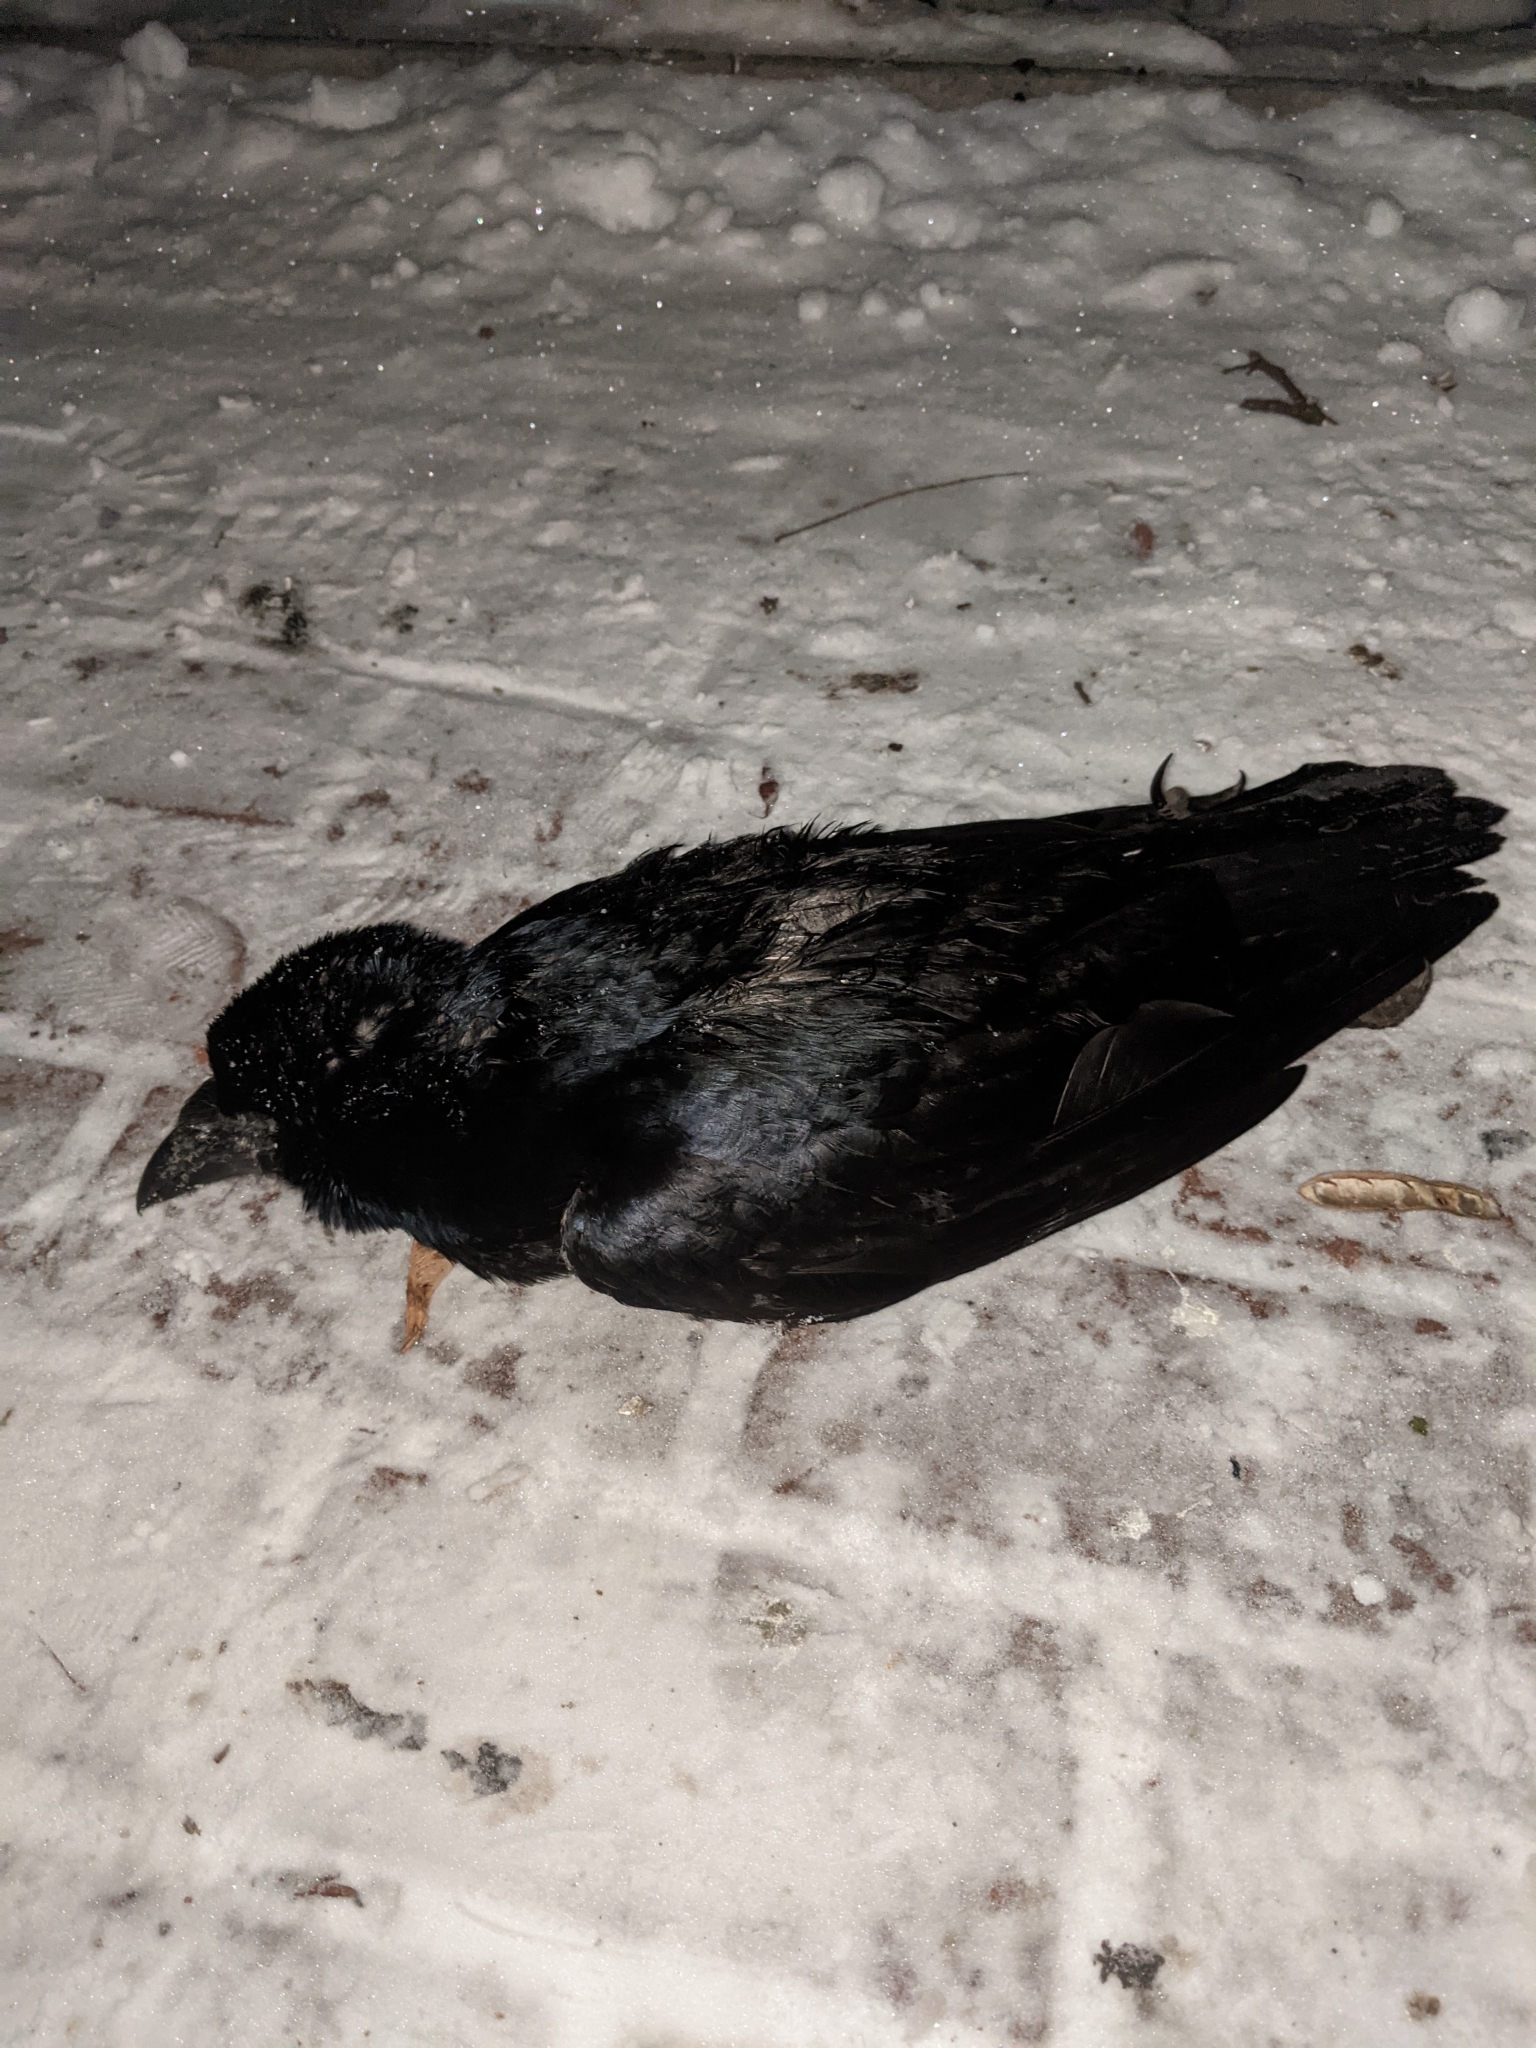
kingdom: Animalia
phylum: Chordata
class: Aves
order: Passeriformes
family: Corvidae
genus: Corvus
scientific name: Corvus frugilegus
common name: Rook
